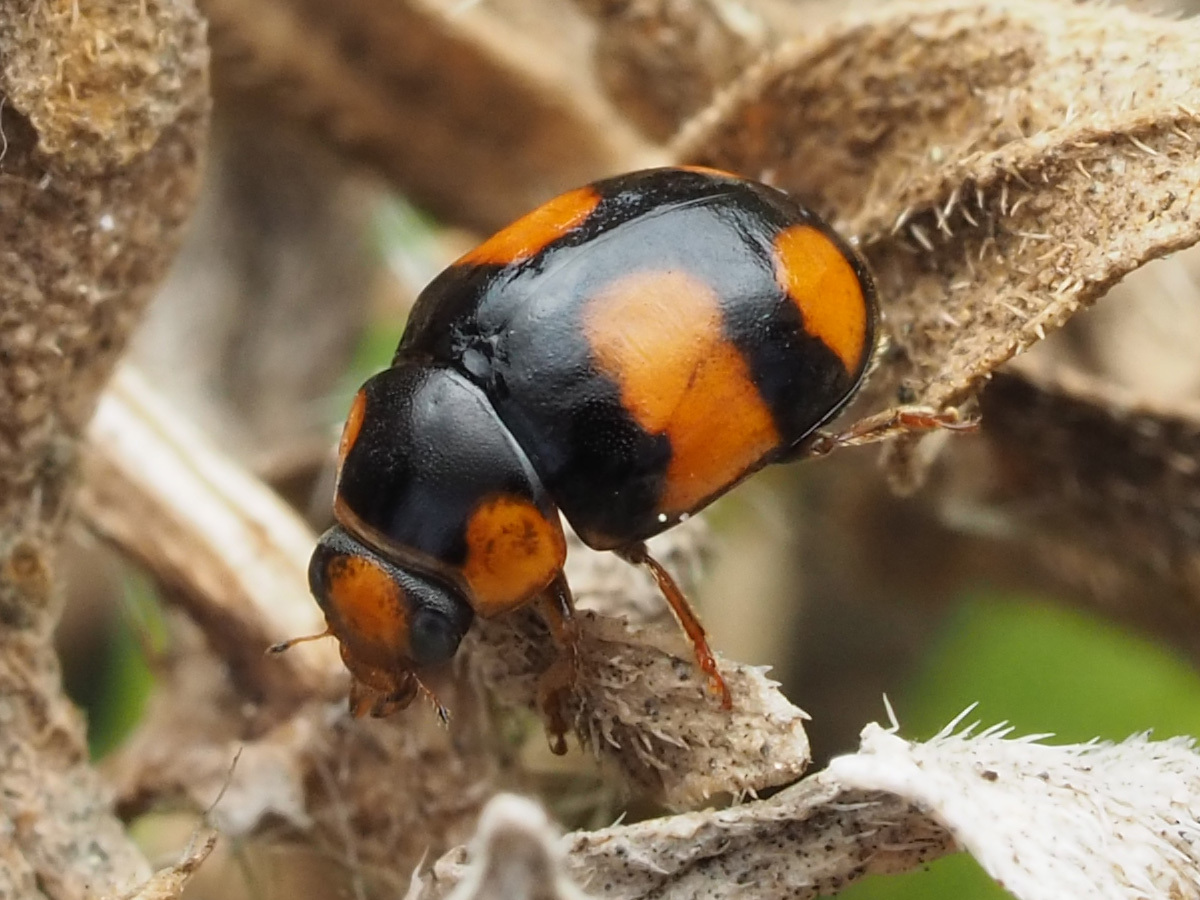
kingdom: Animalia
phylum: Arthropoda
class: Insecta
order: Coleoptera
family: Coccinellidae
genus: Brachiacantha
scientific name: Brachiacantha dentipes
